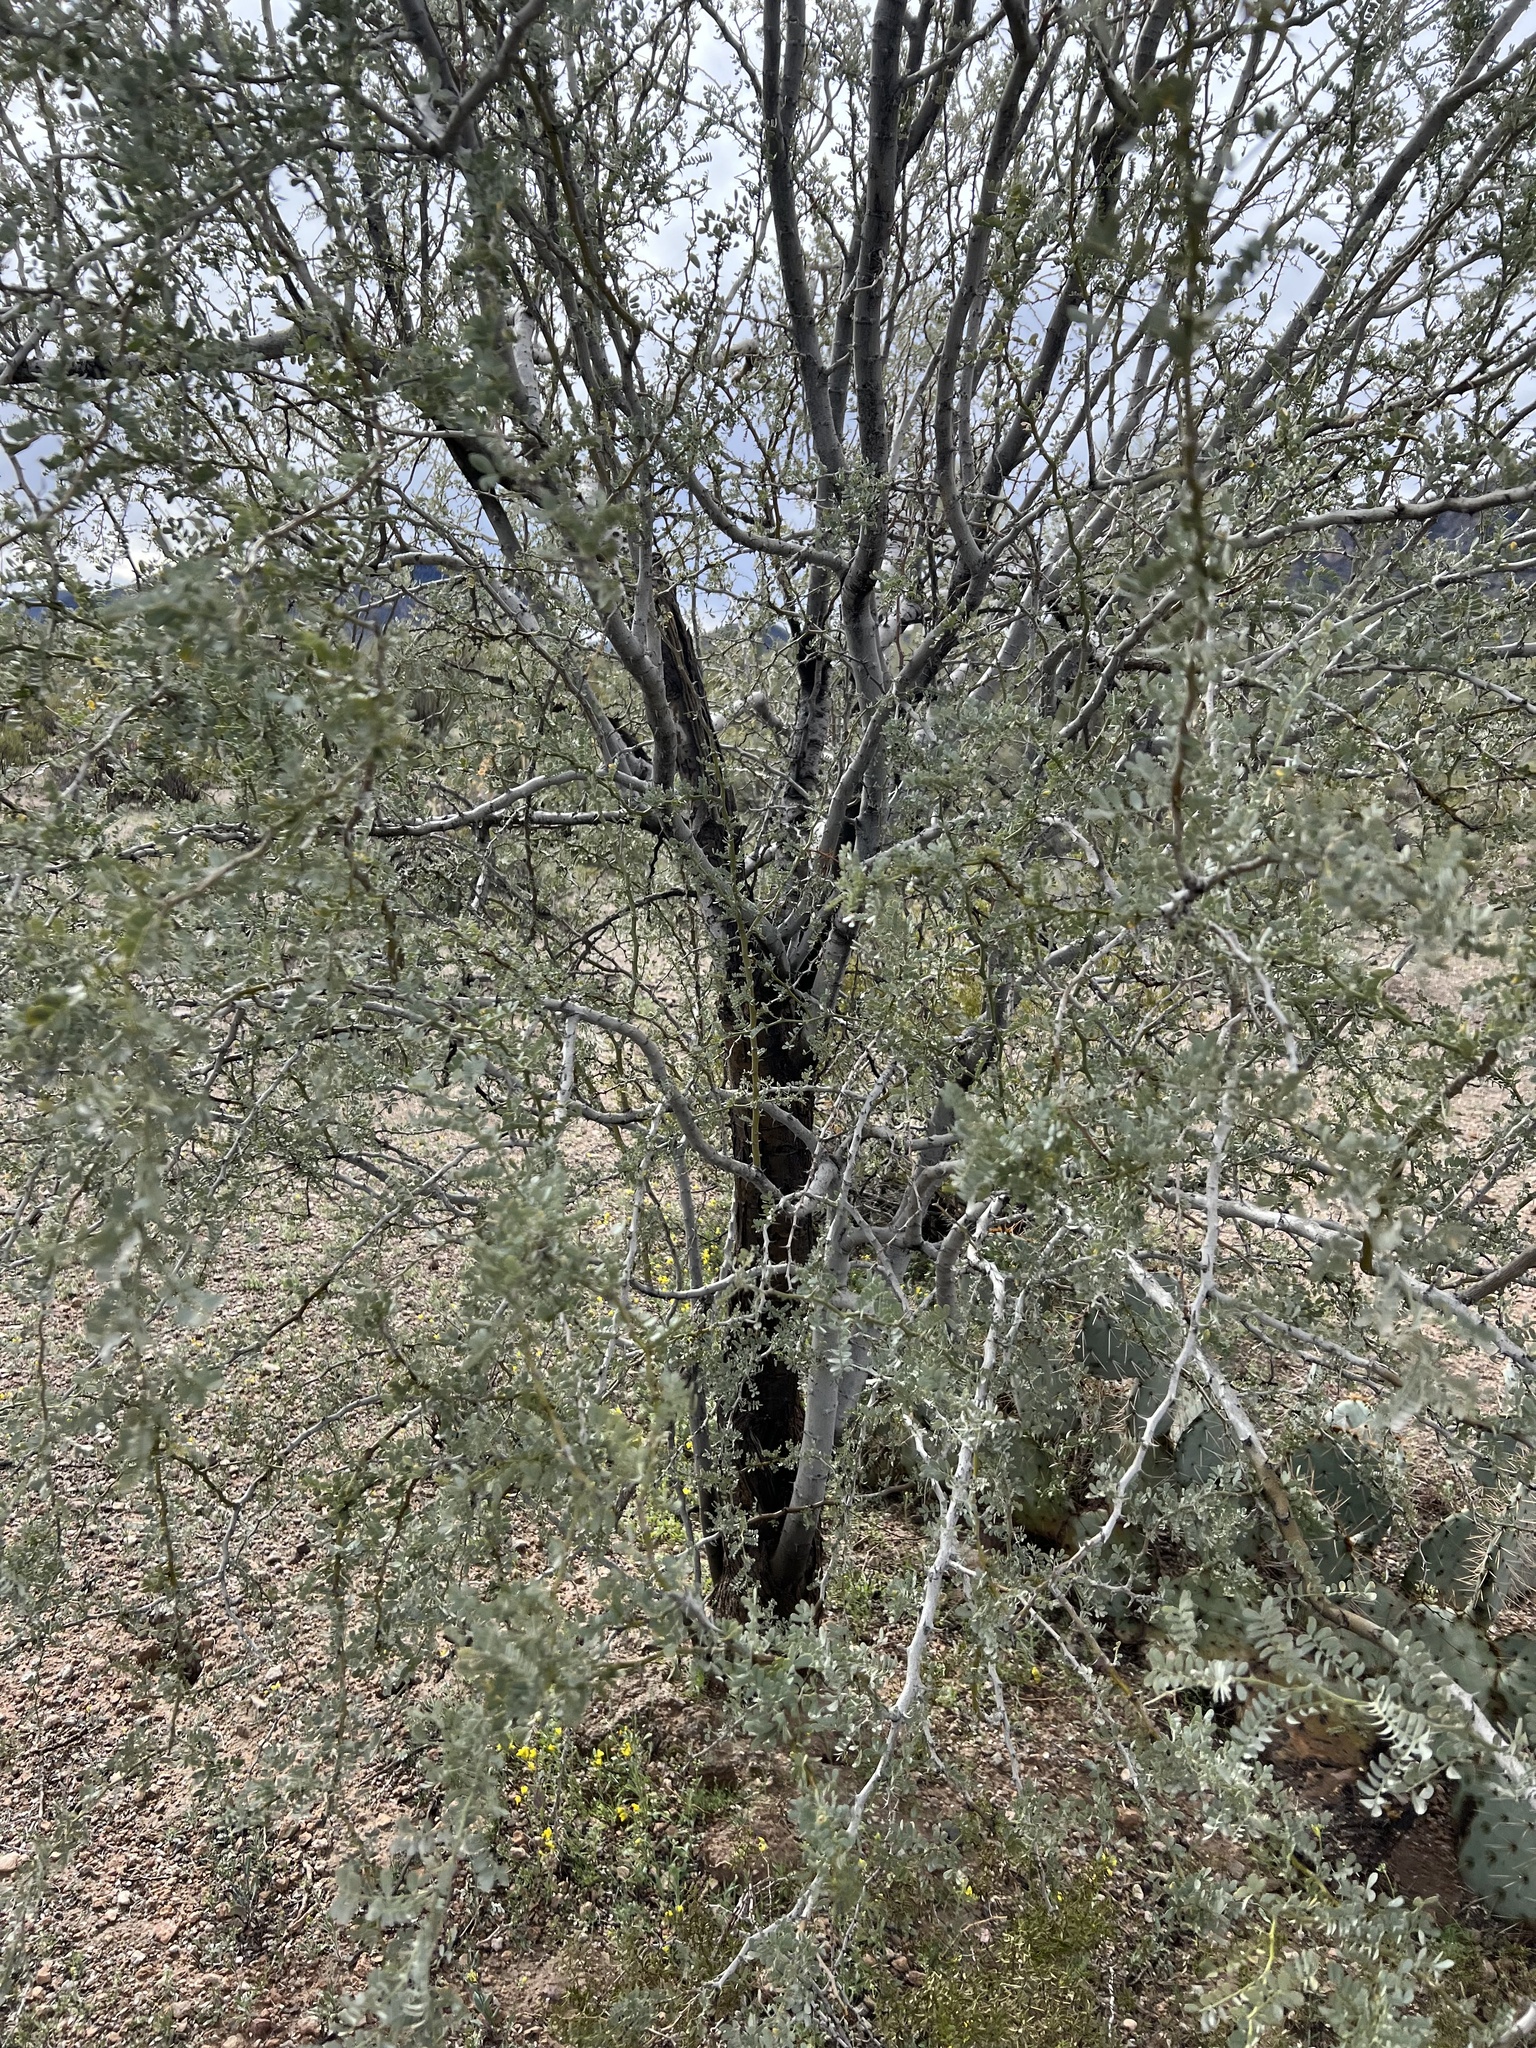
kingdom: Plantae
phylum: Tracheophyta
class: Magnoliopsida
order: Fabales
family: Fabaceae
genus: Olneya
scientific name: Olneya tesota
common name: Desert ironwood
